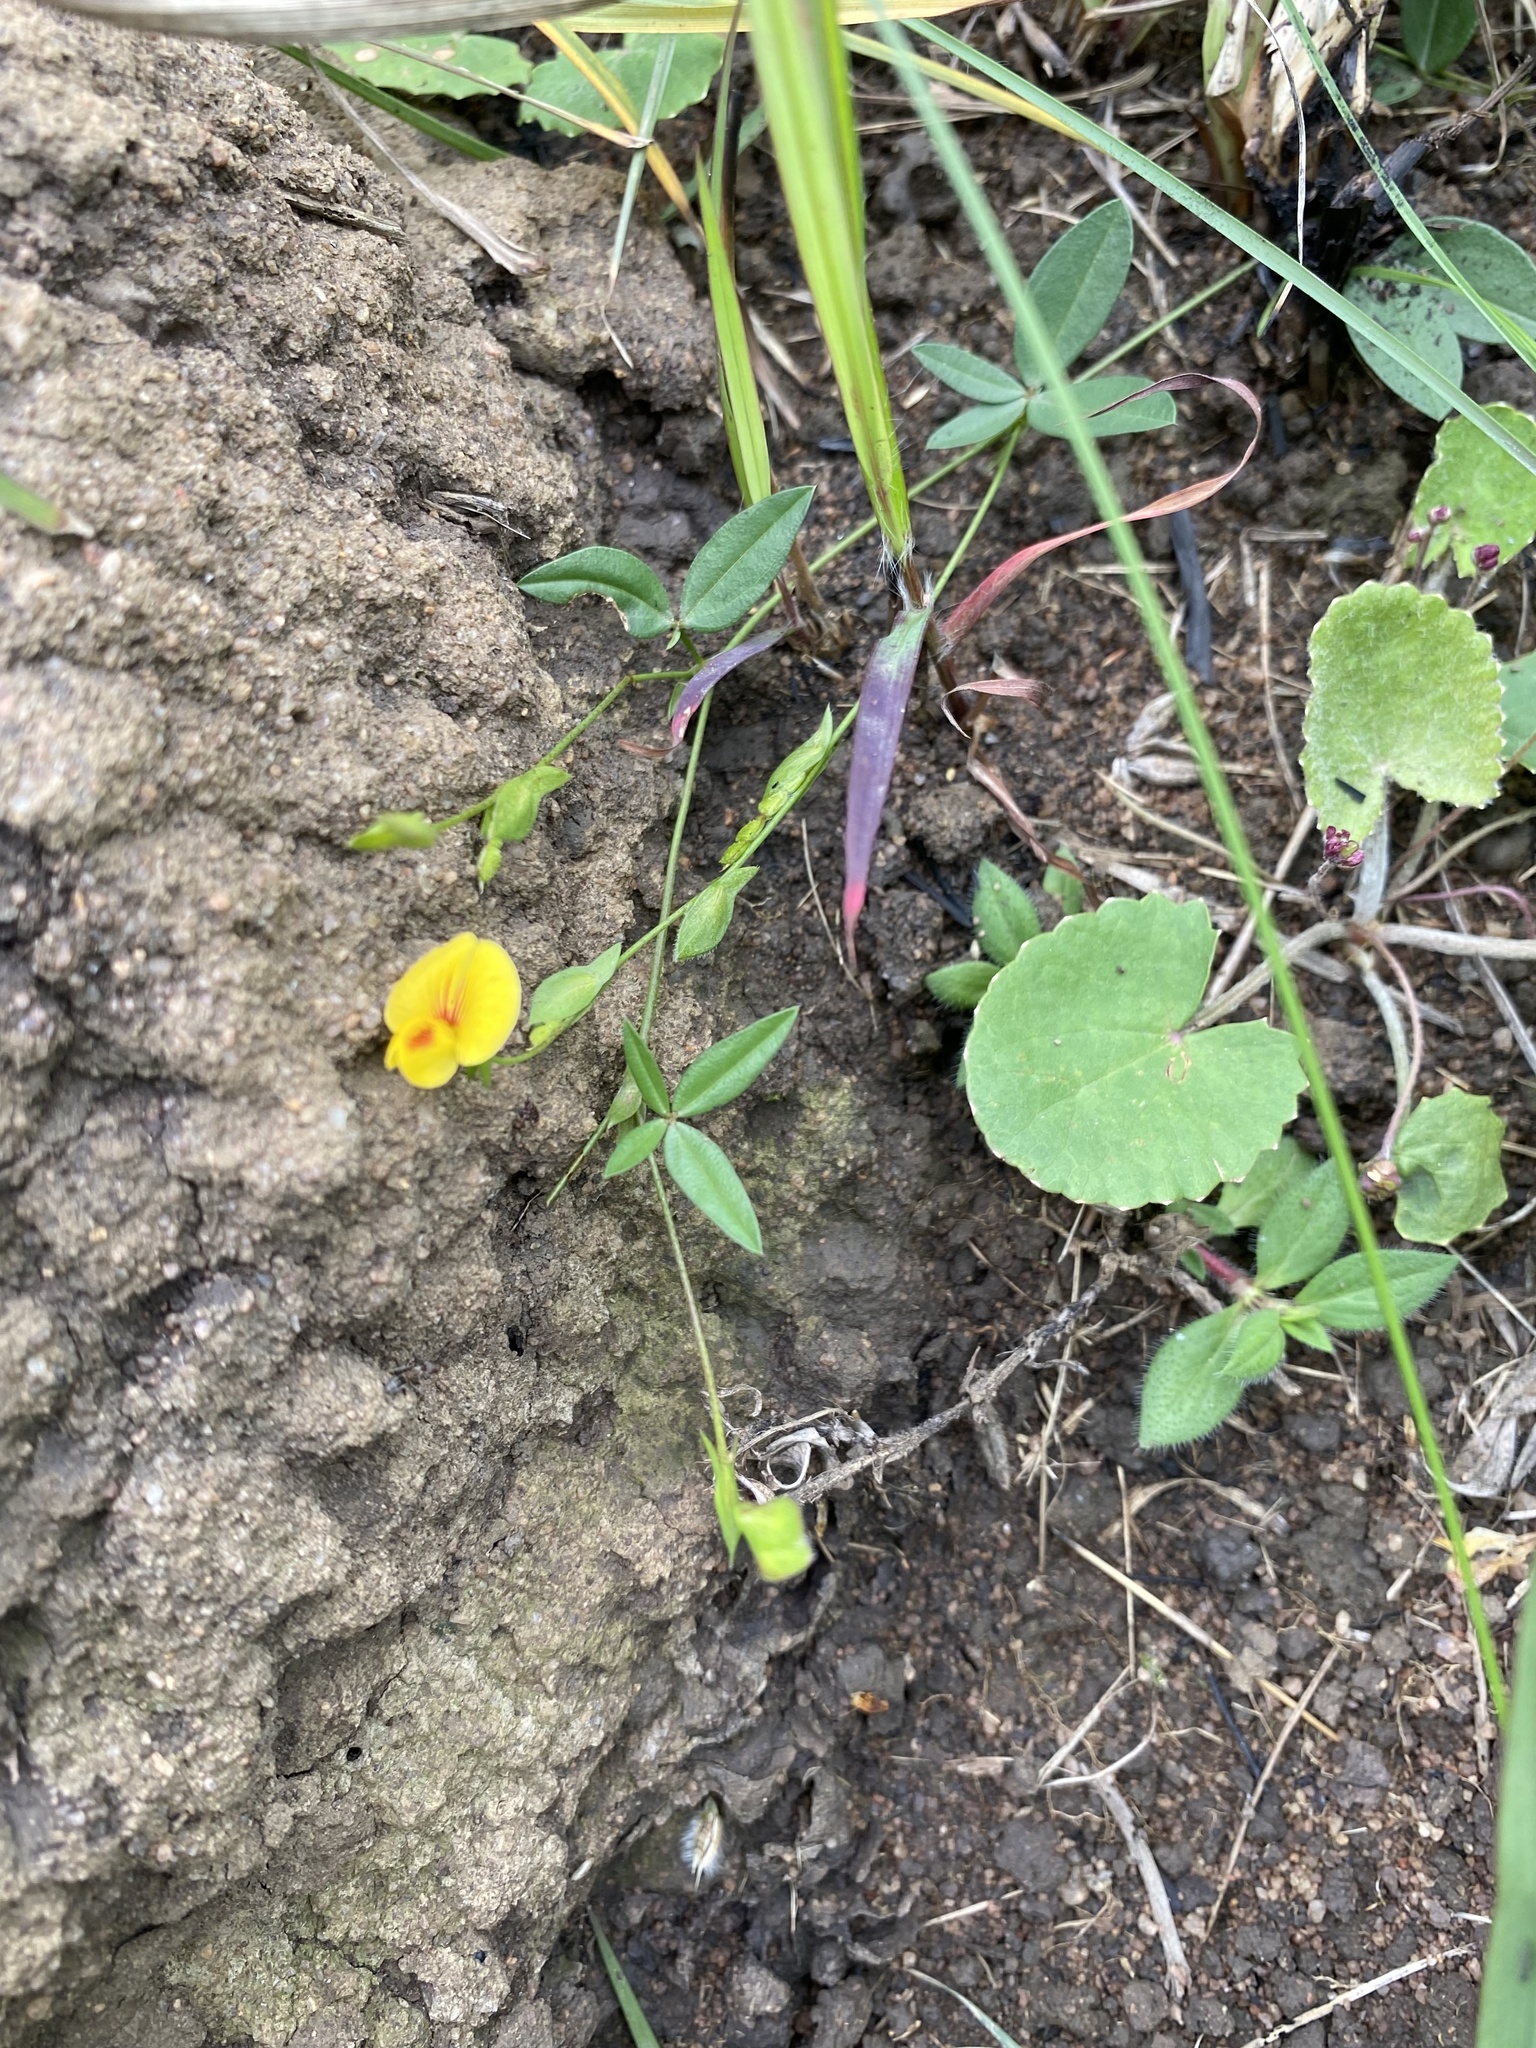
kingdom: Plantae
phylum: Tracheophyta
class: Magnoliopsida
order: Fabales
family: Fabaceae
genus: Zornia
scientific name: Zornia milneana
